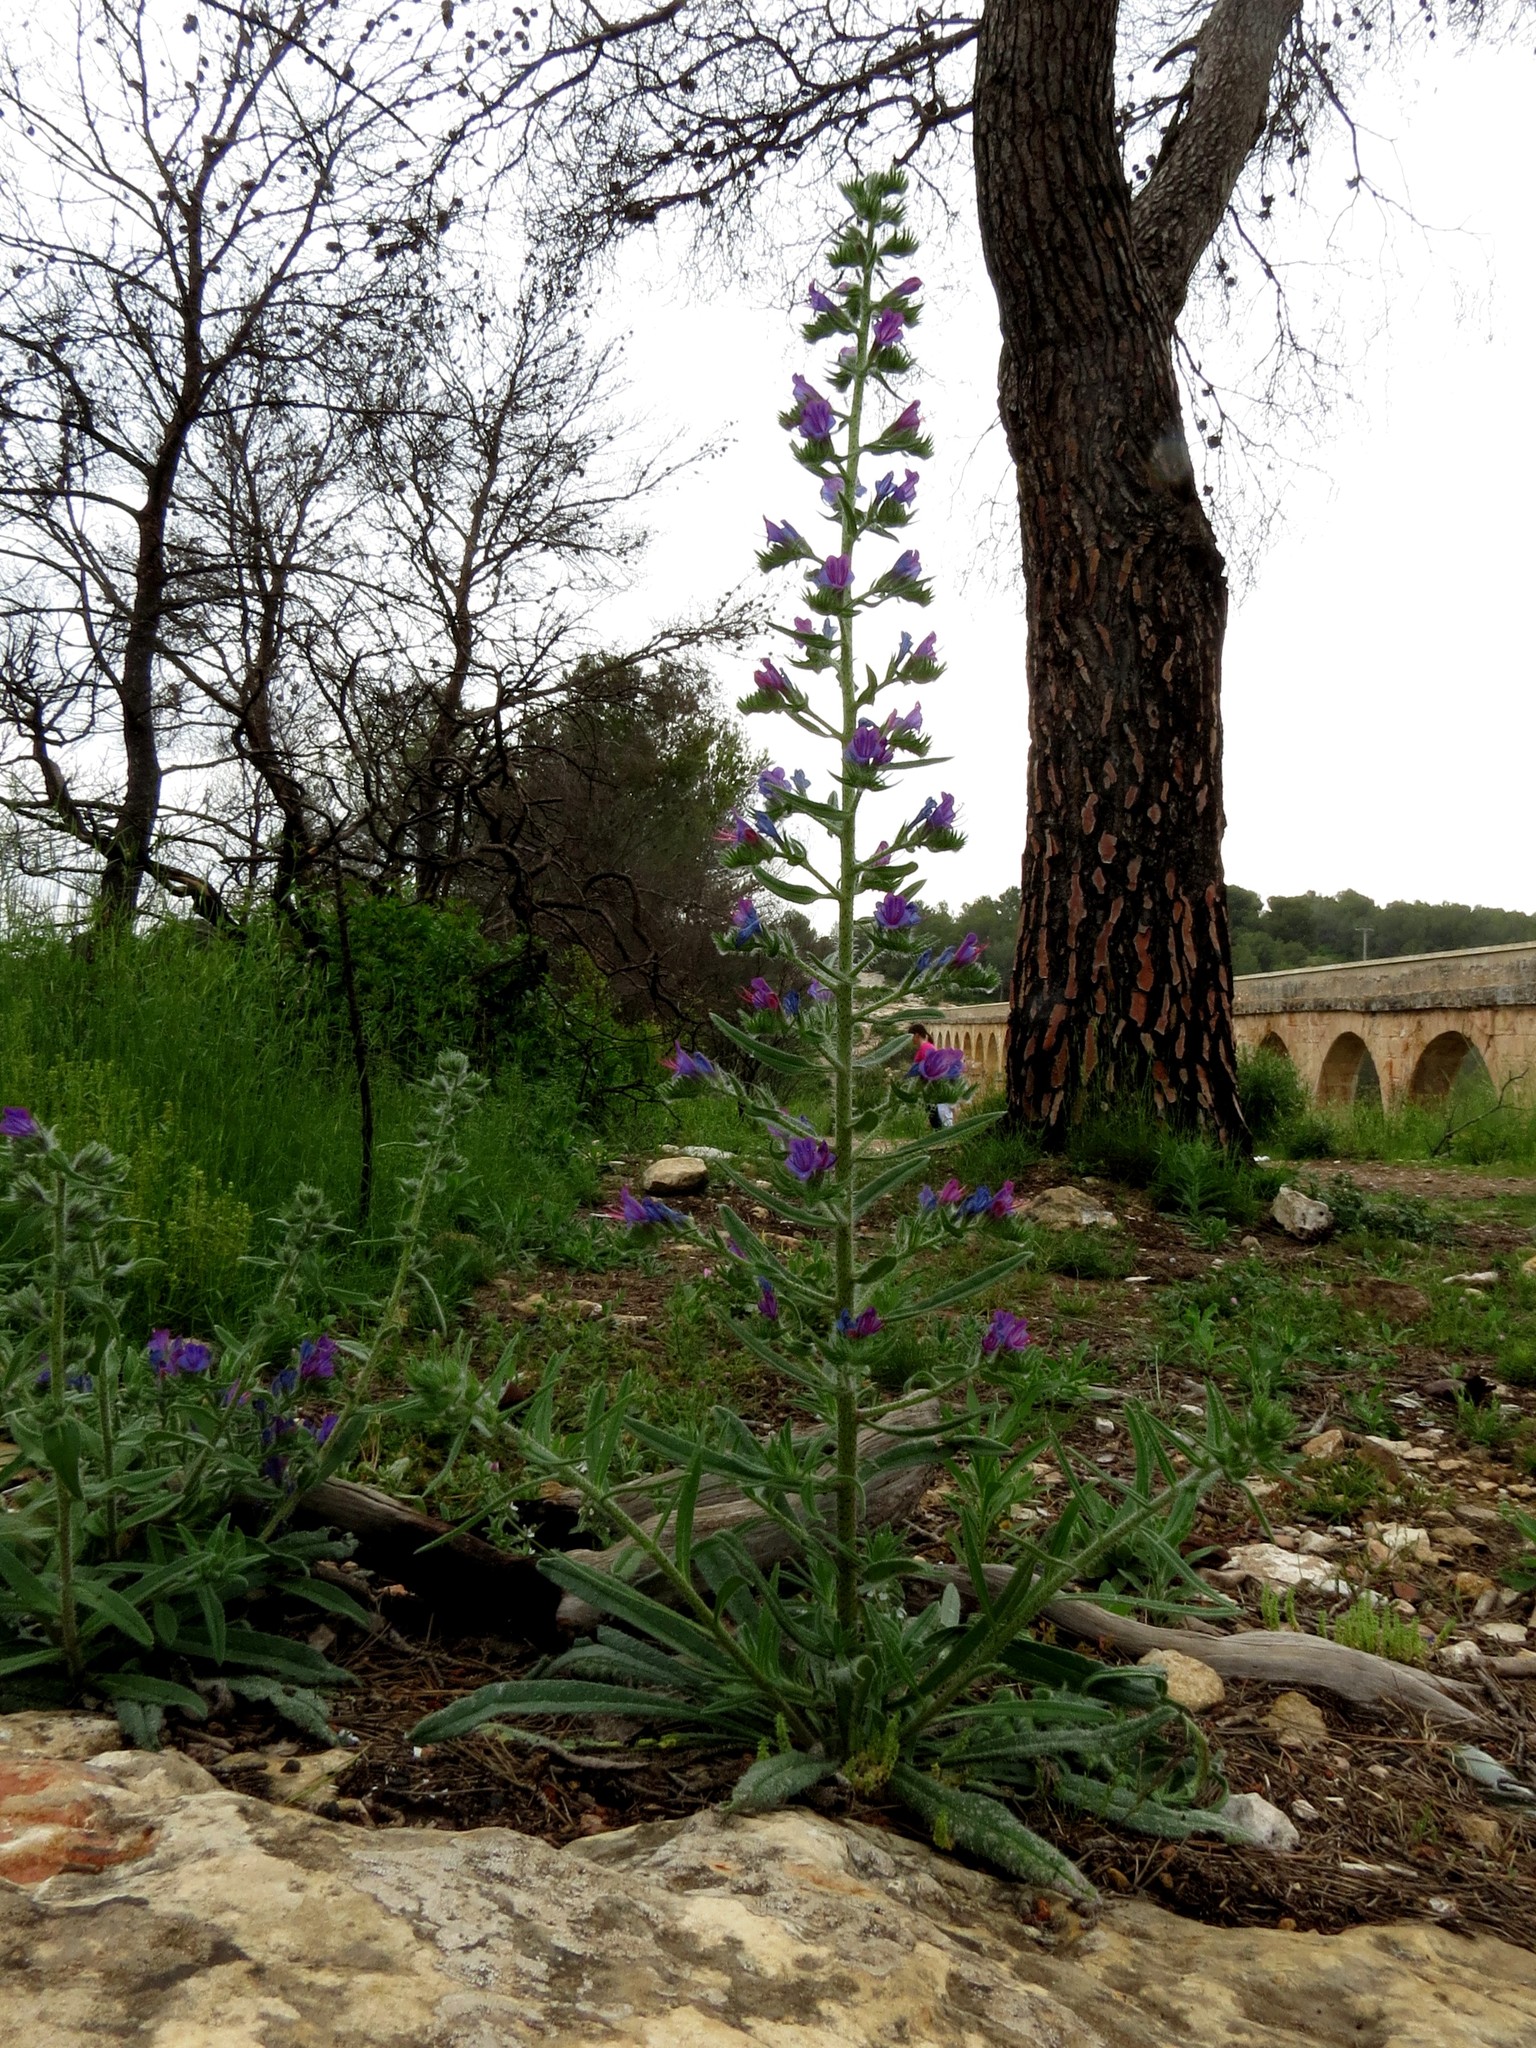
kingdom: Plantae
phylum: Tracheophyta
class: Magnoliopsida
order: Boraginales
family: Boraginaceae
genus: Echium
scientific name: Echium vulgare
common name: Common viper's bugloss
